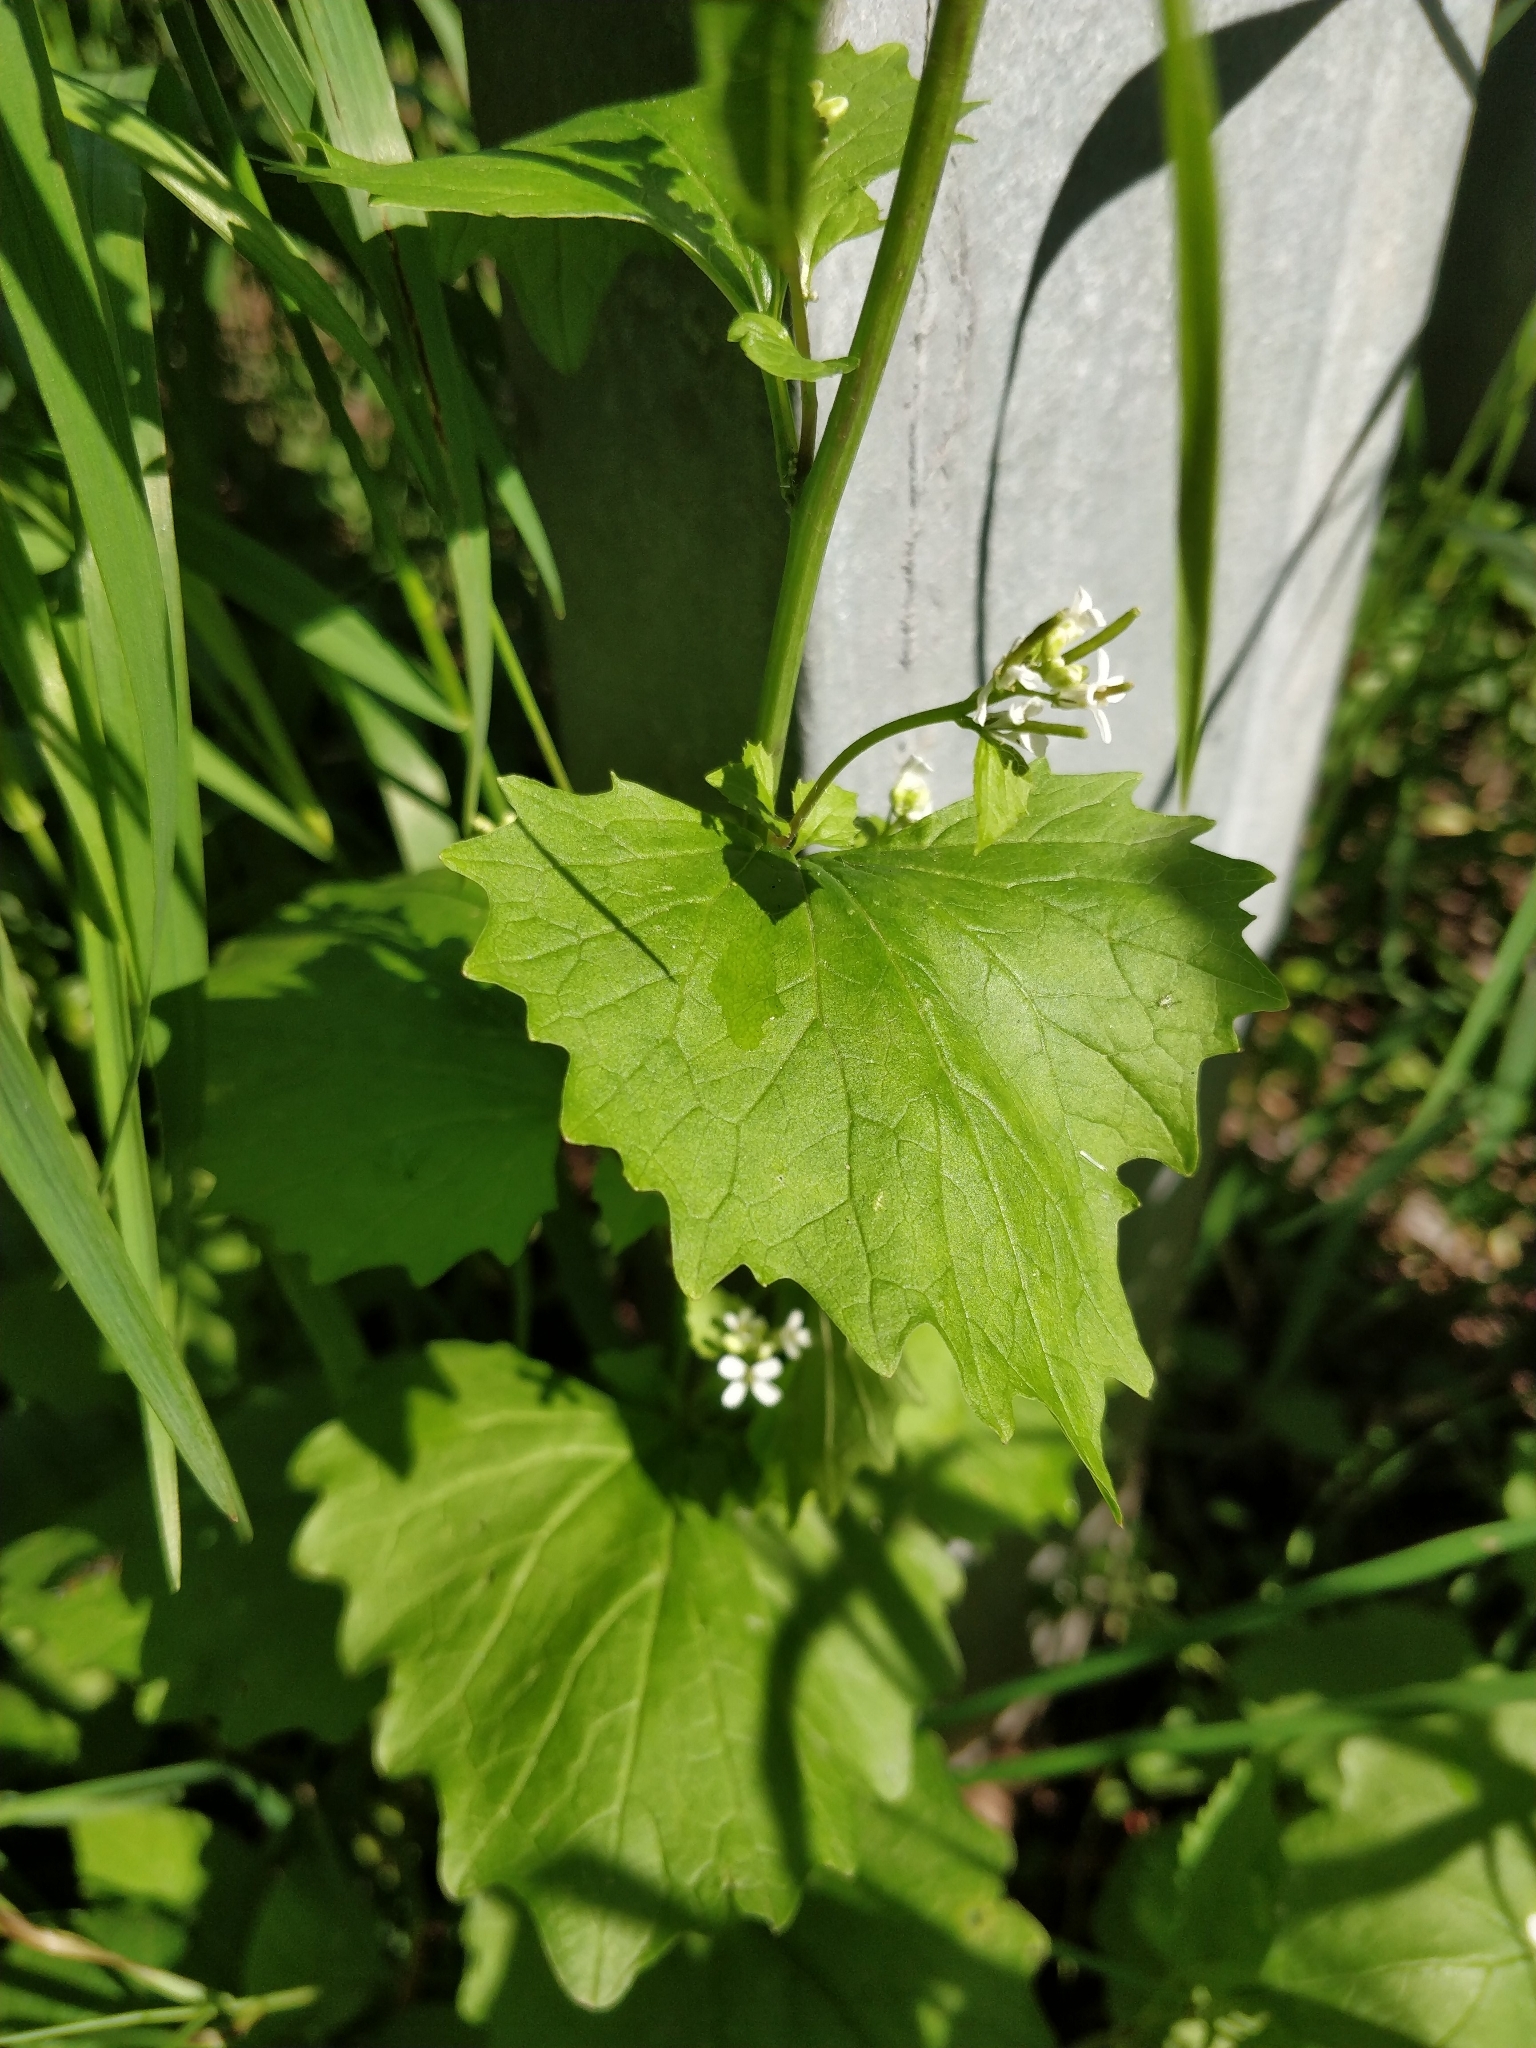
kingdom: Plantae
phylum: Tracheophyta
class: Magnoliopsida
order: Brassicales
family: Brassicaceae
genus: Alliaria
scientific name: Alliaria petiolata
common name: Garlic mustard
